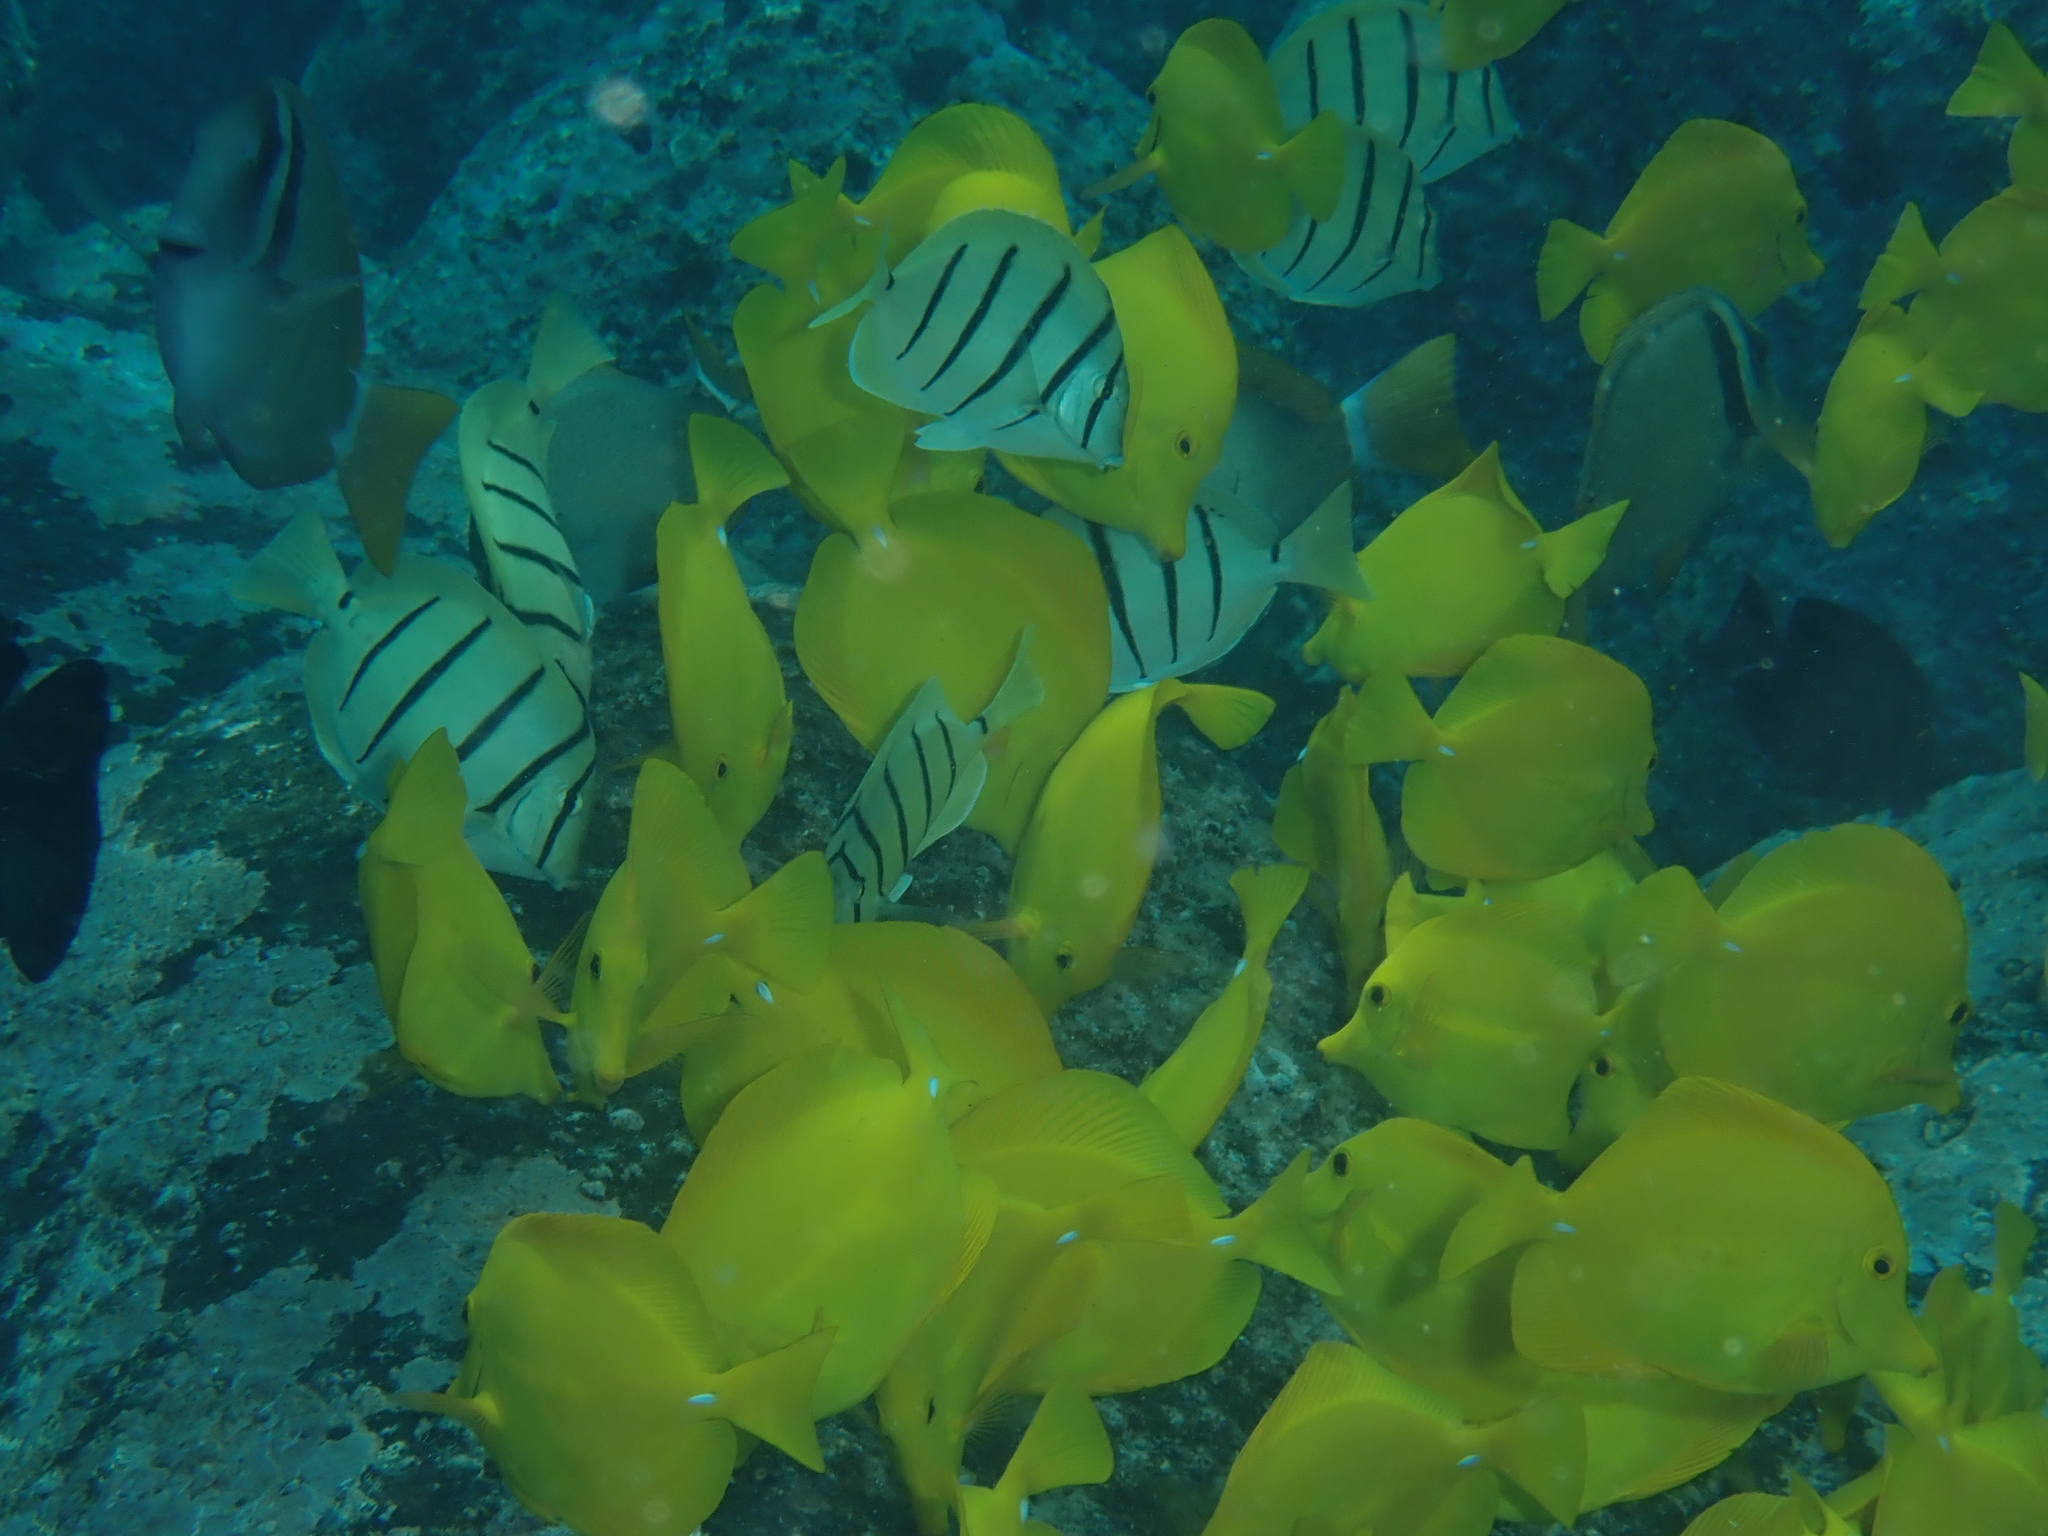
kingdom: Animalia
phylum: Chordata
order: Perciformes
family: Acanthuridae
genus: Acanthurus
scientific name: Acanthurus triostegus
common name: Convict surgeonfish
